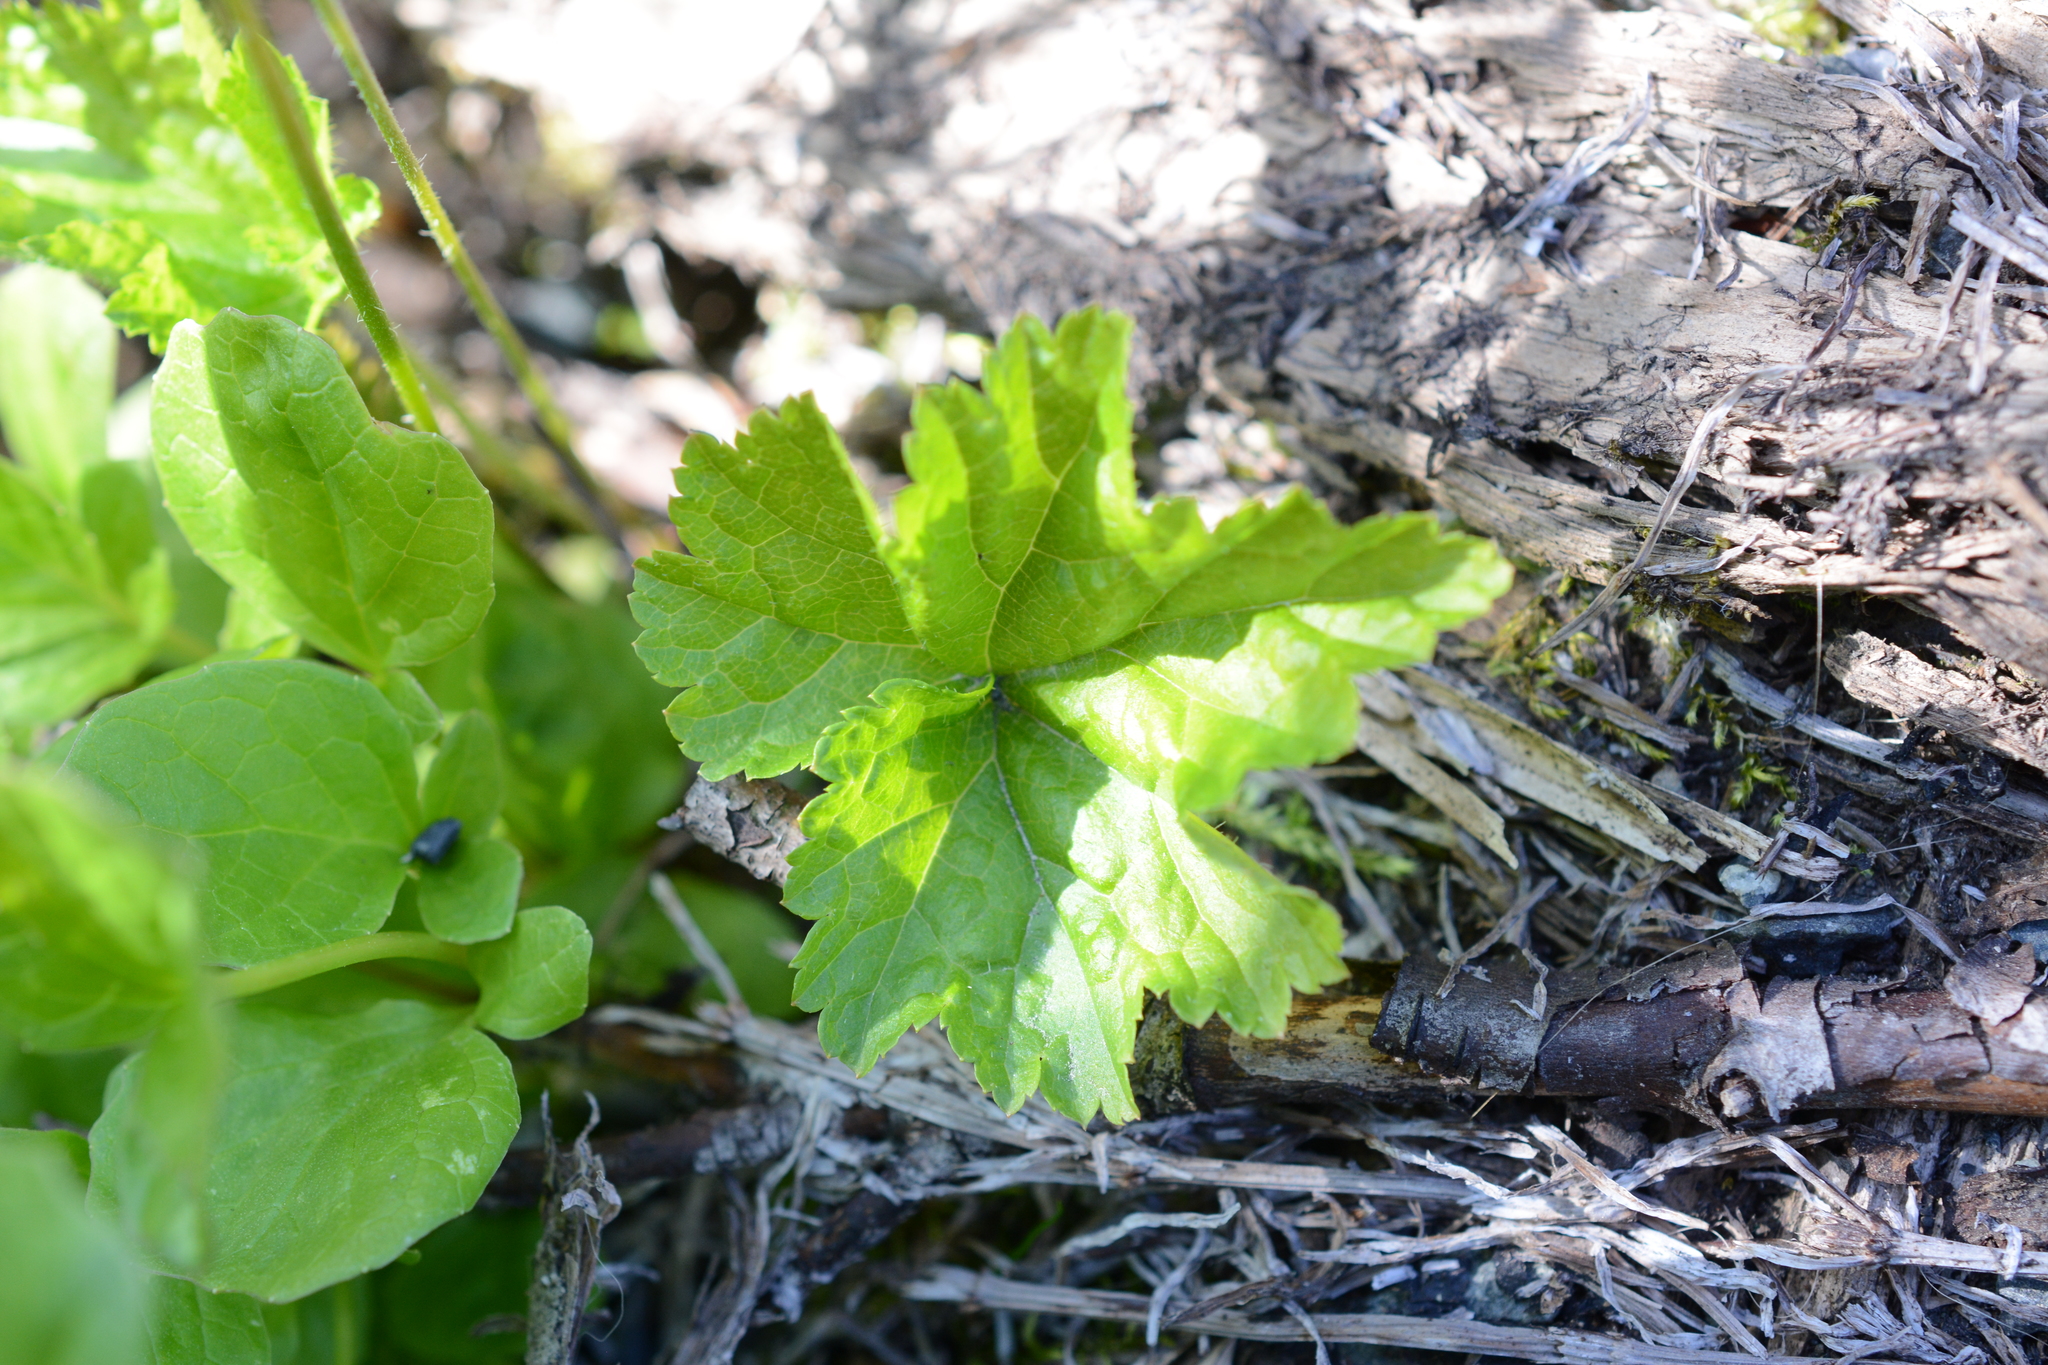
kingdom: Plantae
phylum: Tracheophyta
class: Magnoliopsida
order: Saxifragales
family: Saxifragaceae
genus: Pectiantia
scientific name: Pectiantia pentandra
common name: Alpine bishop's-cap
